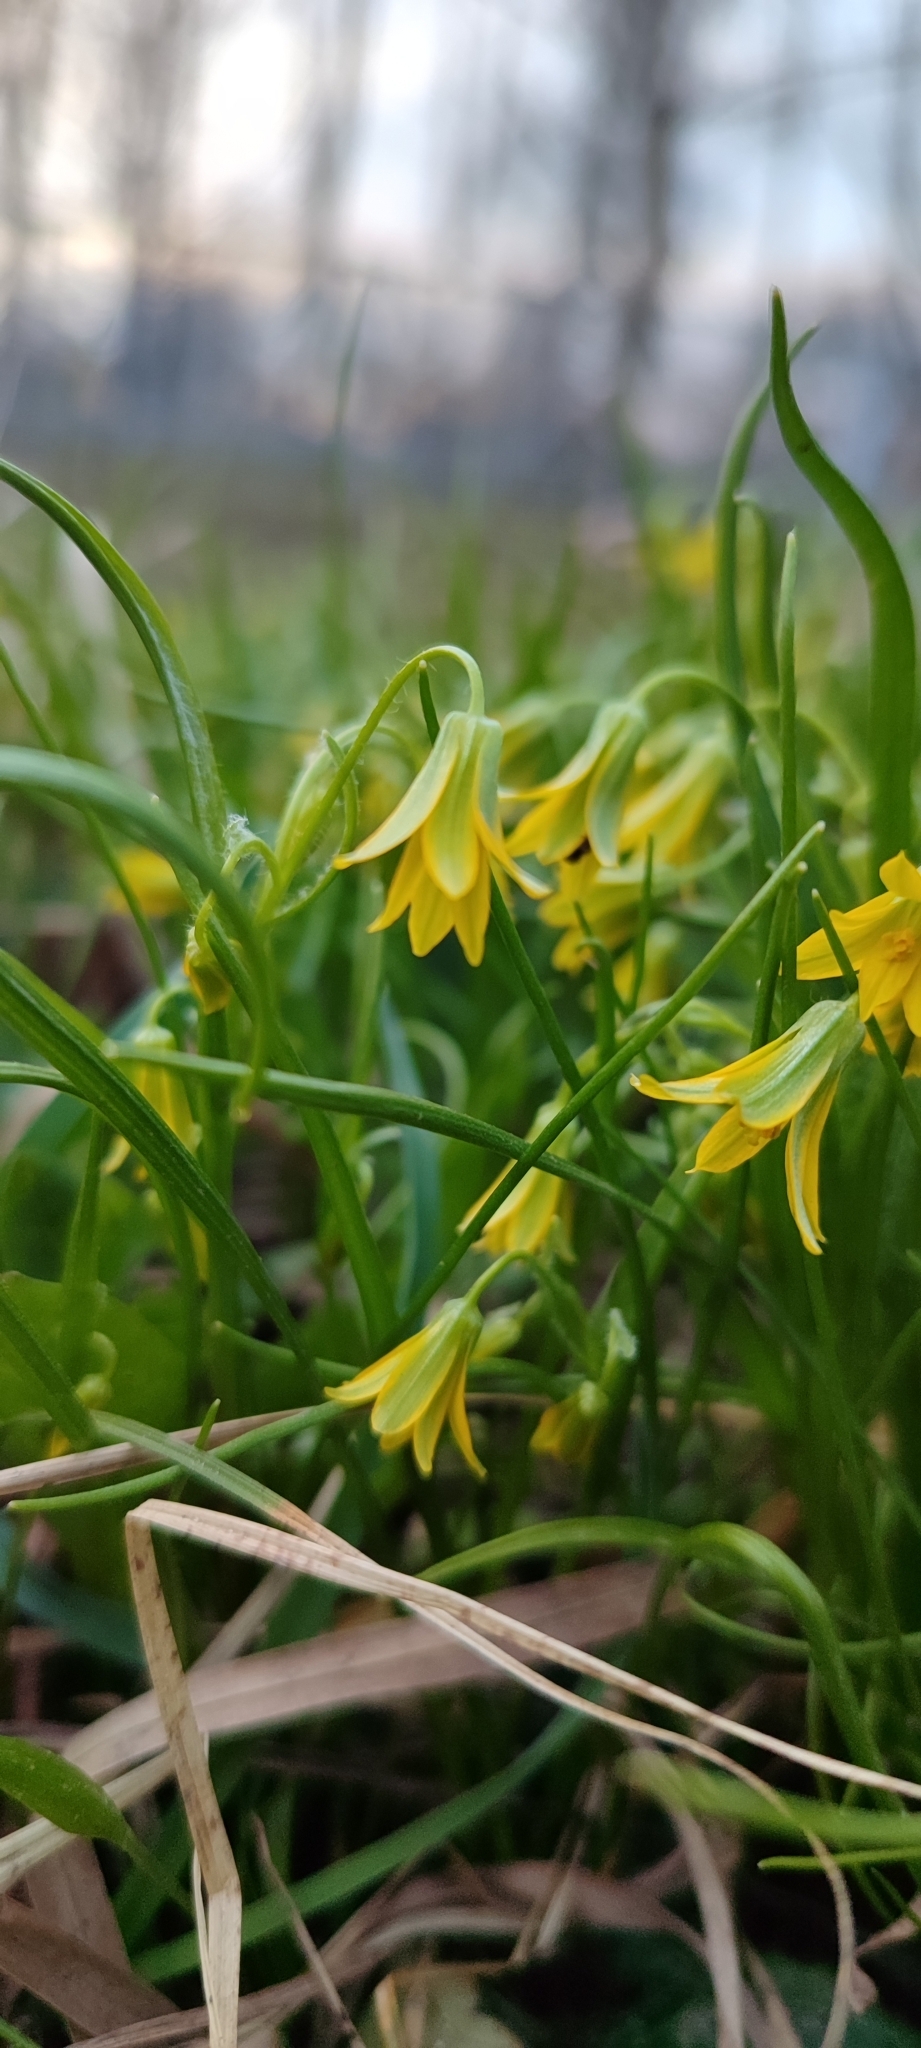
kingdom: Plantae
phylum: Tracheophyta
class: Liliopsida
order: Liliales
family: Liliaceae
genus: Gagea
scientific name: Gagea minima
